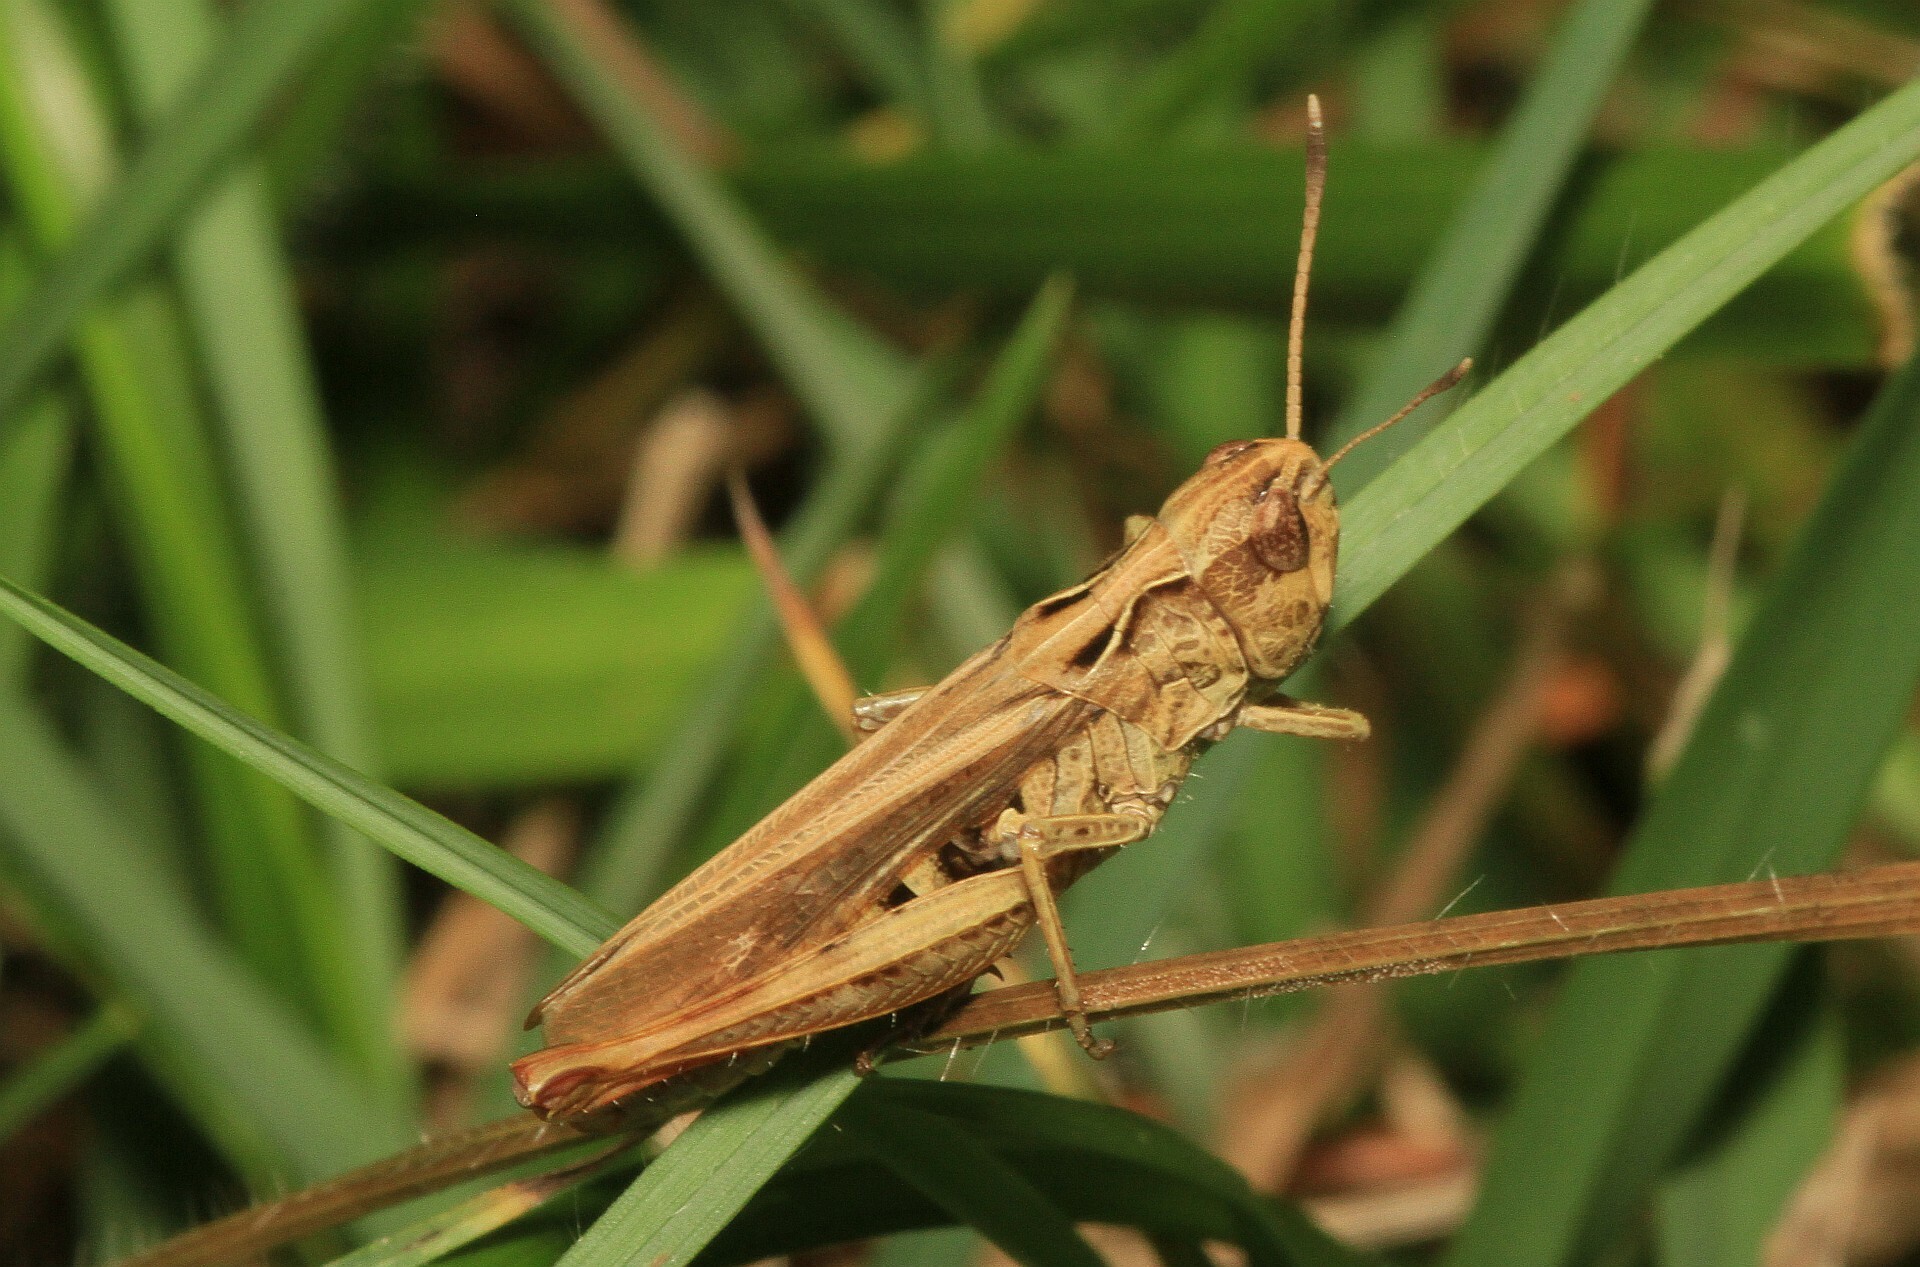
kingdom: Animalia
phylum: Arthropoda
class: Insecta
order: Orthoptera
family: Acrididae
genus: Gomphocerippus
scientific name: Gomphocerippus rufus
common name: Rufous grasshopper
